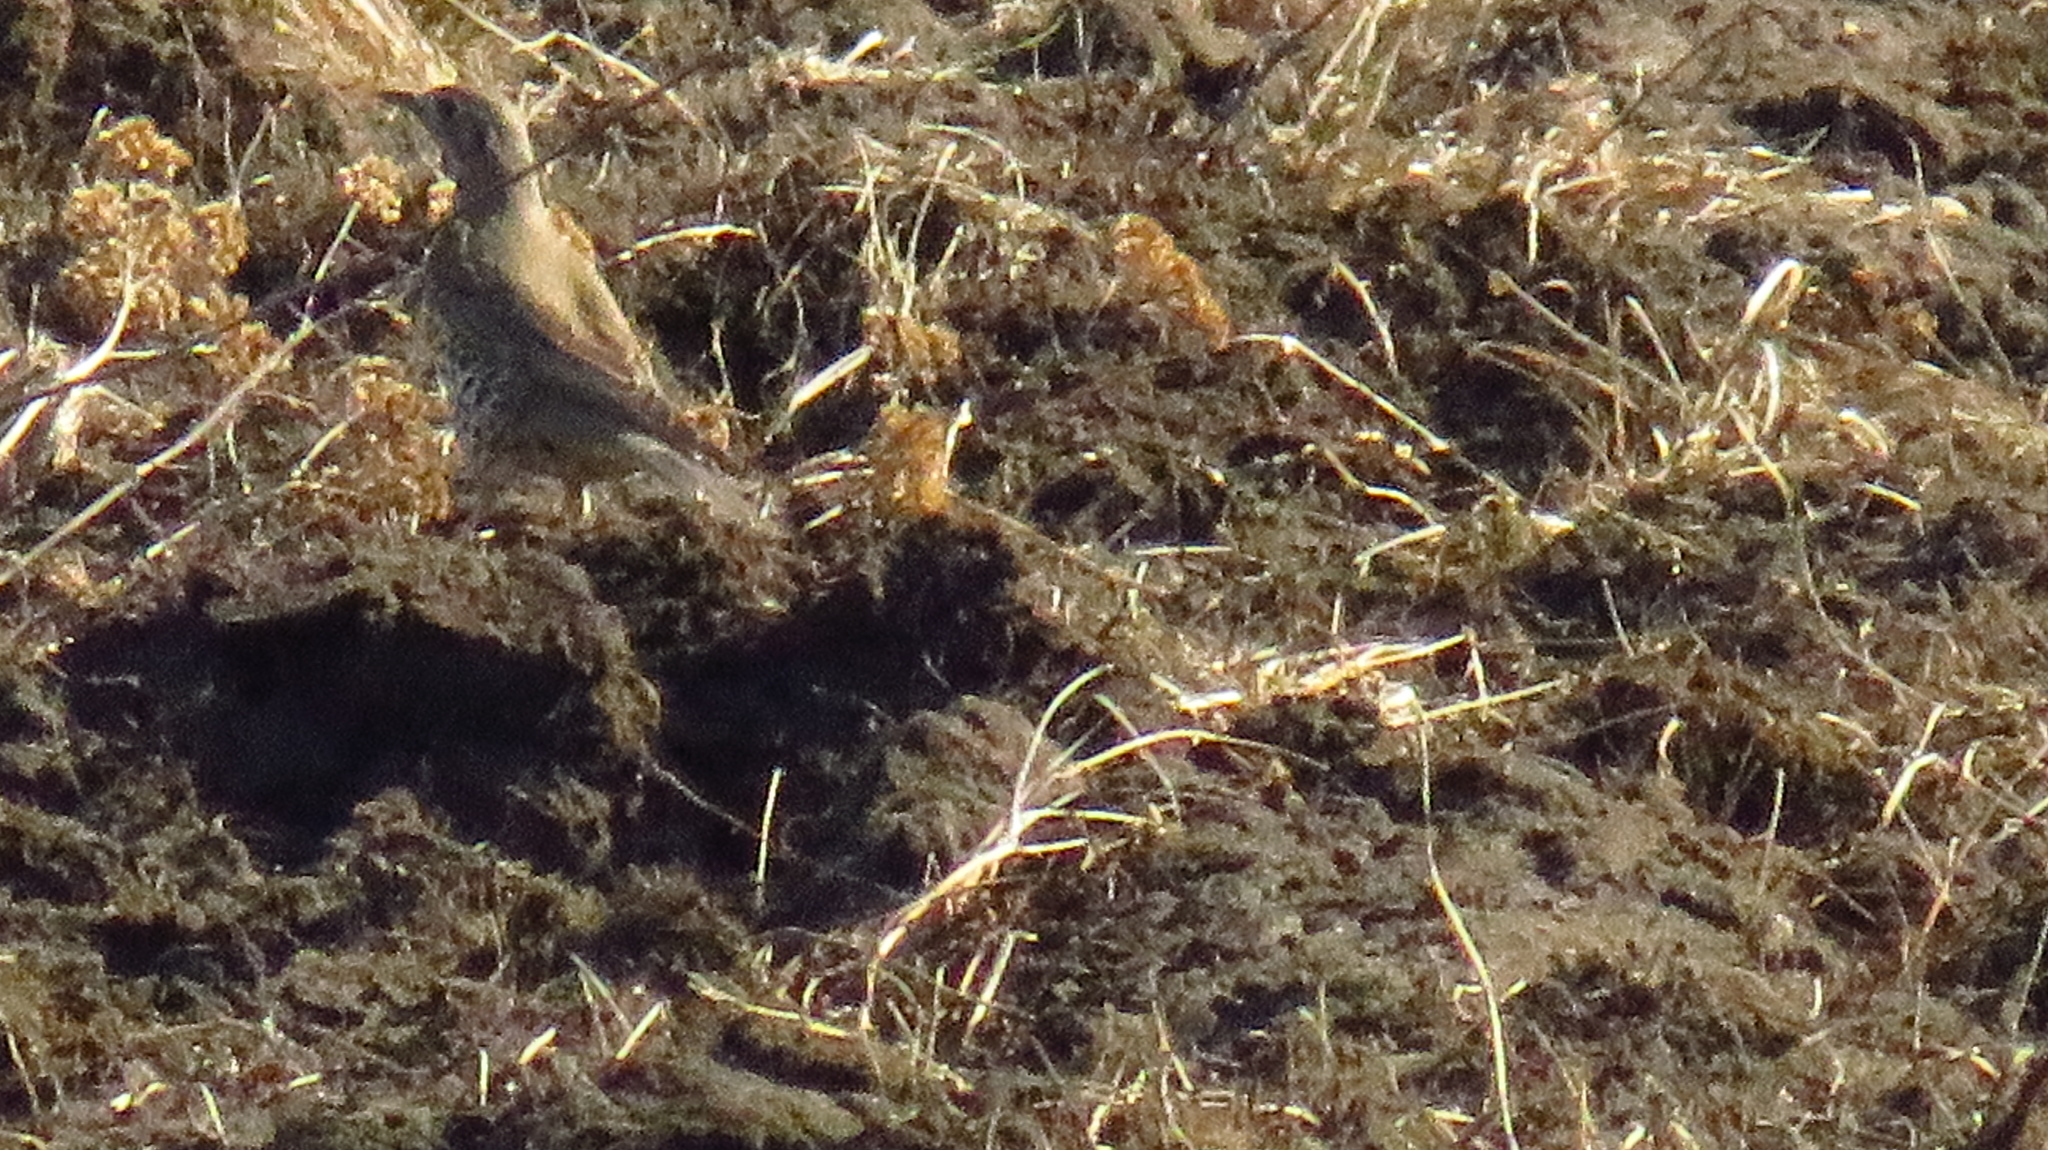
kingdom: Animalia
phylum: Chordata
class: Aves
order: Passeriformes
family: Turdidae
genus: Turdus
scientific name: Turdus viscivorus
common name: Mistle thrush
